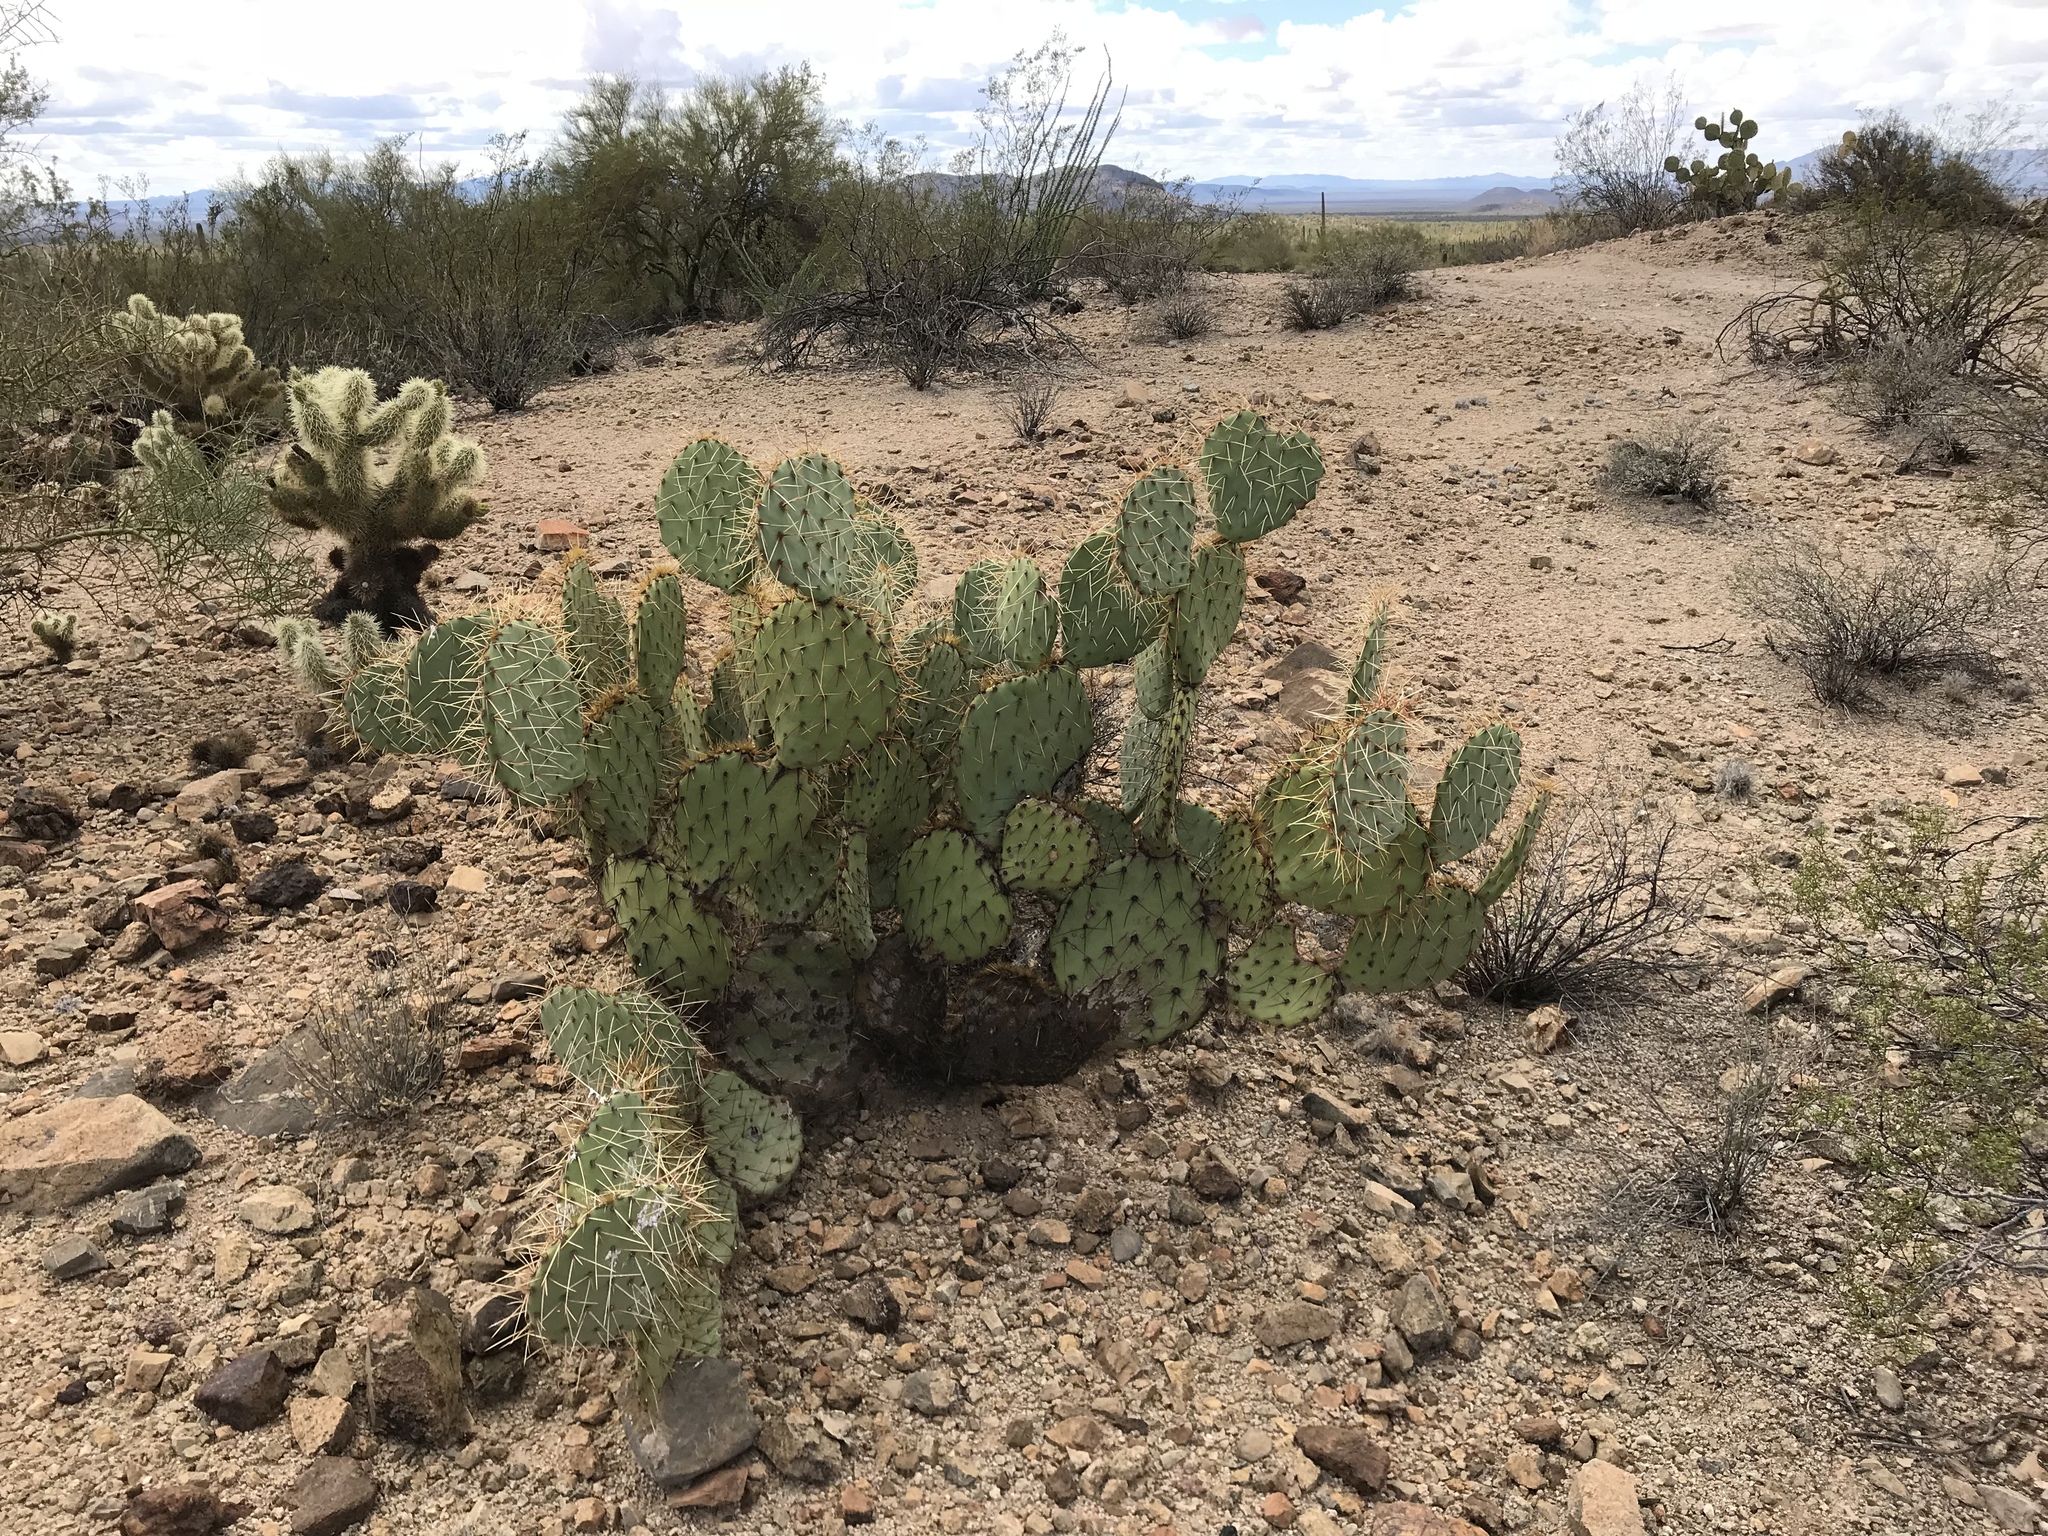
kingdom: Plantae
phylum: Tracheophyta
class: Magnoliopsida
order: Caryophyllales
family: Cactaceae
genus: Opuntia
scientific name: Opuntia engelmannii
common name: Cactus-apple
